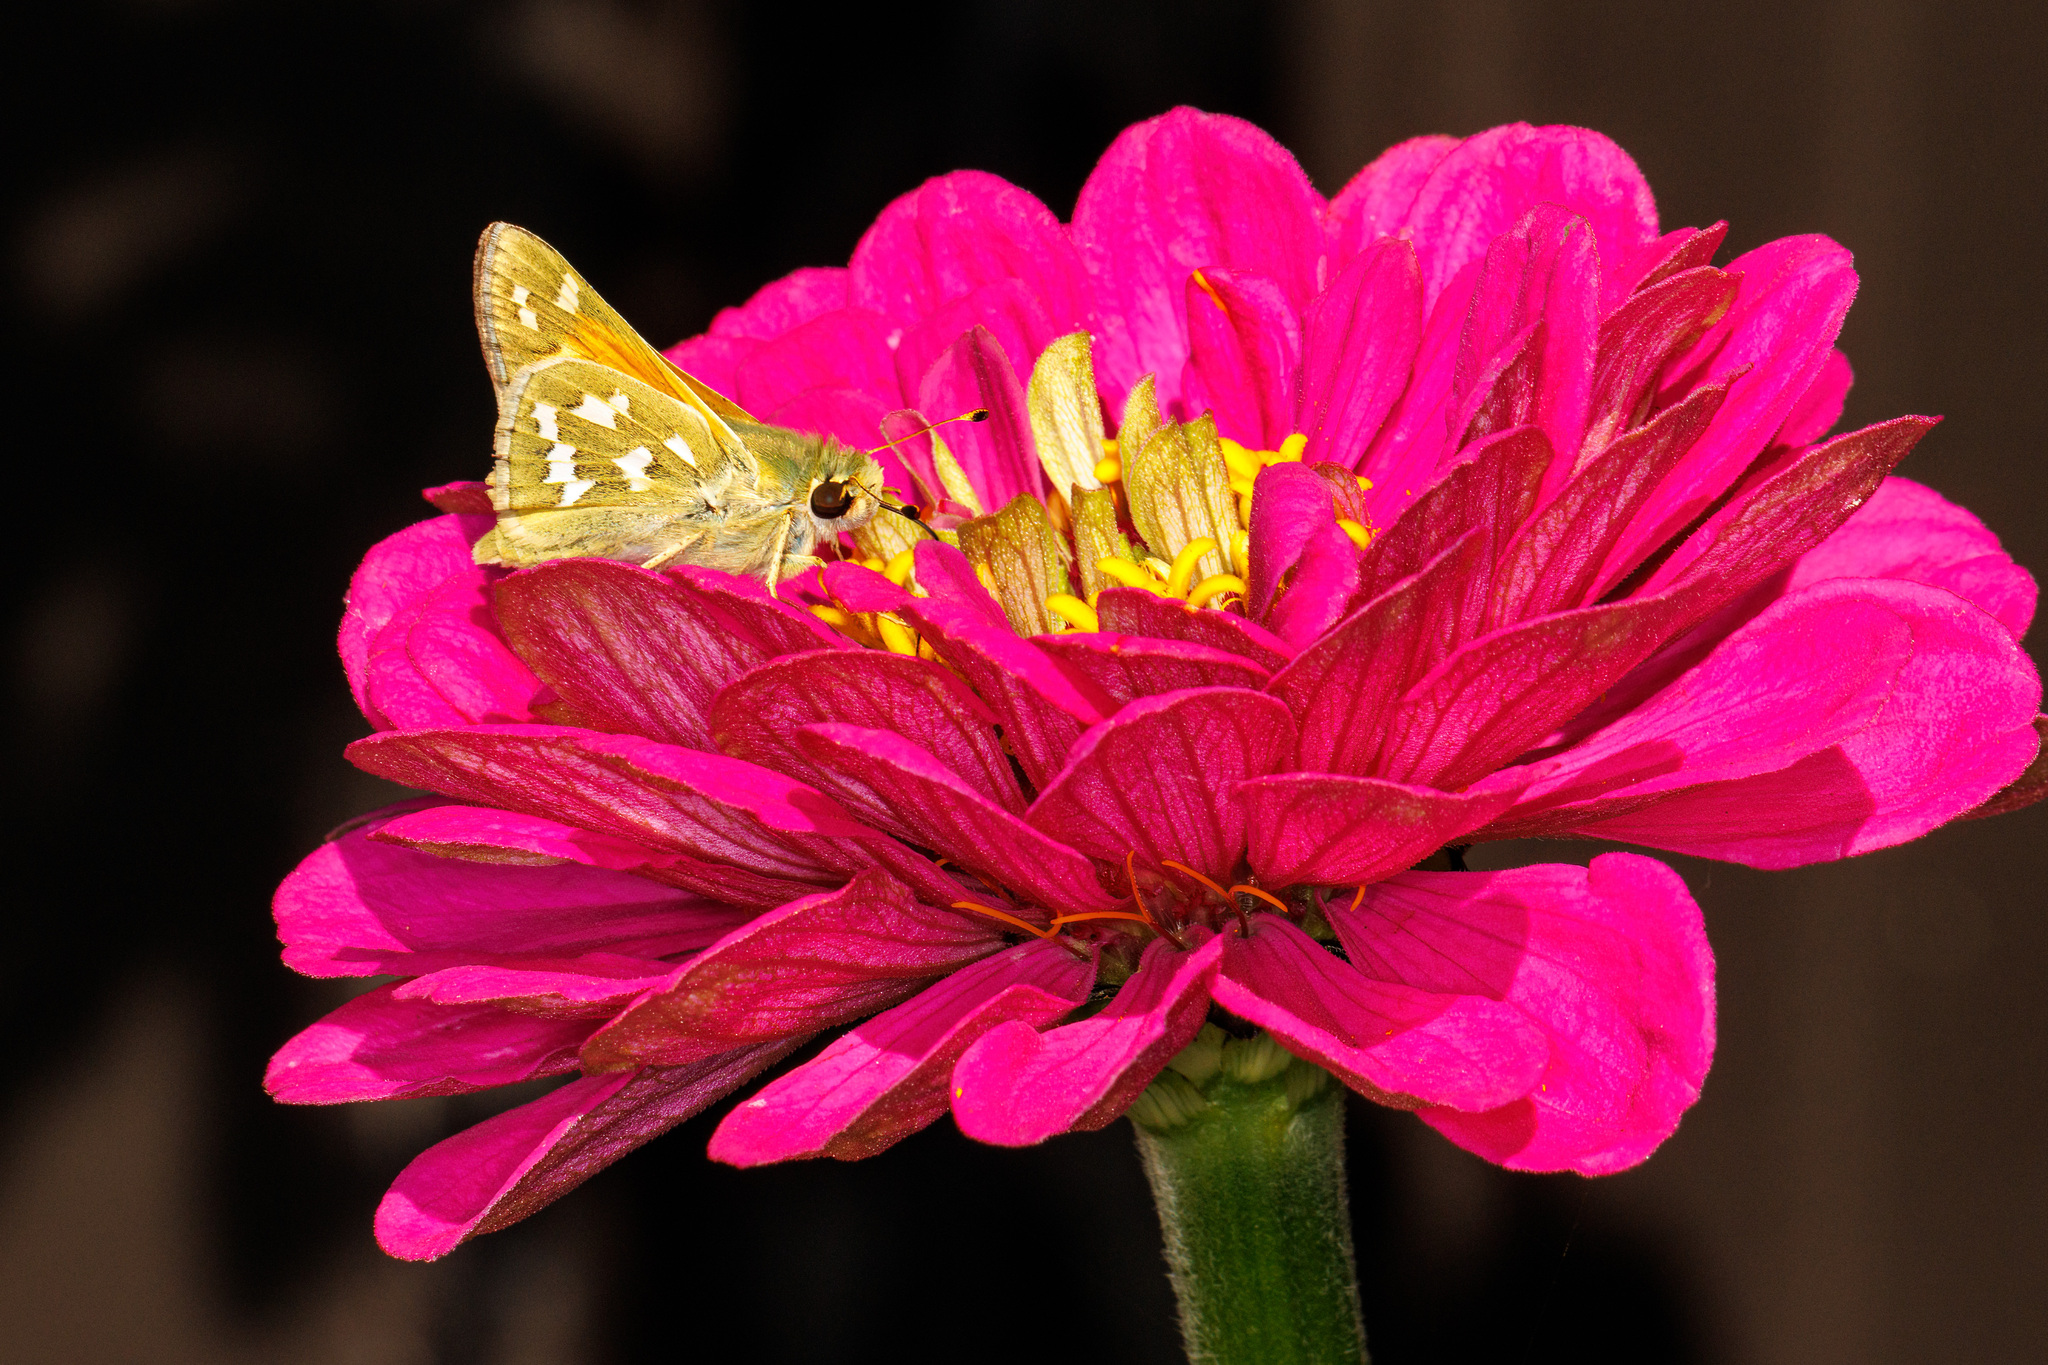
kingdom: Animalia
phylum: Arthropoda
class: Insecta
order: Lepidoptera
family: Hesperiidae
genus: Hesperia
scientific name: Hesperia comma
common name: Common branded skipper
